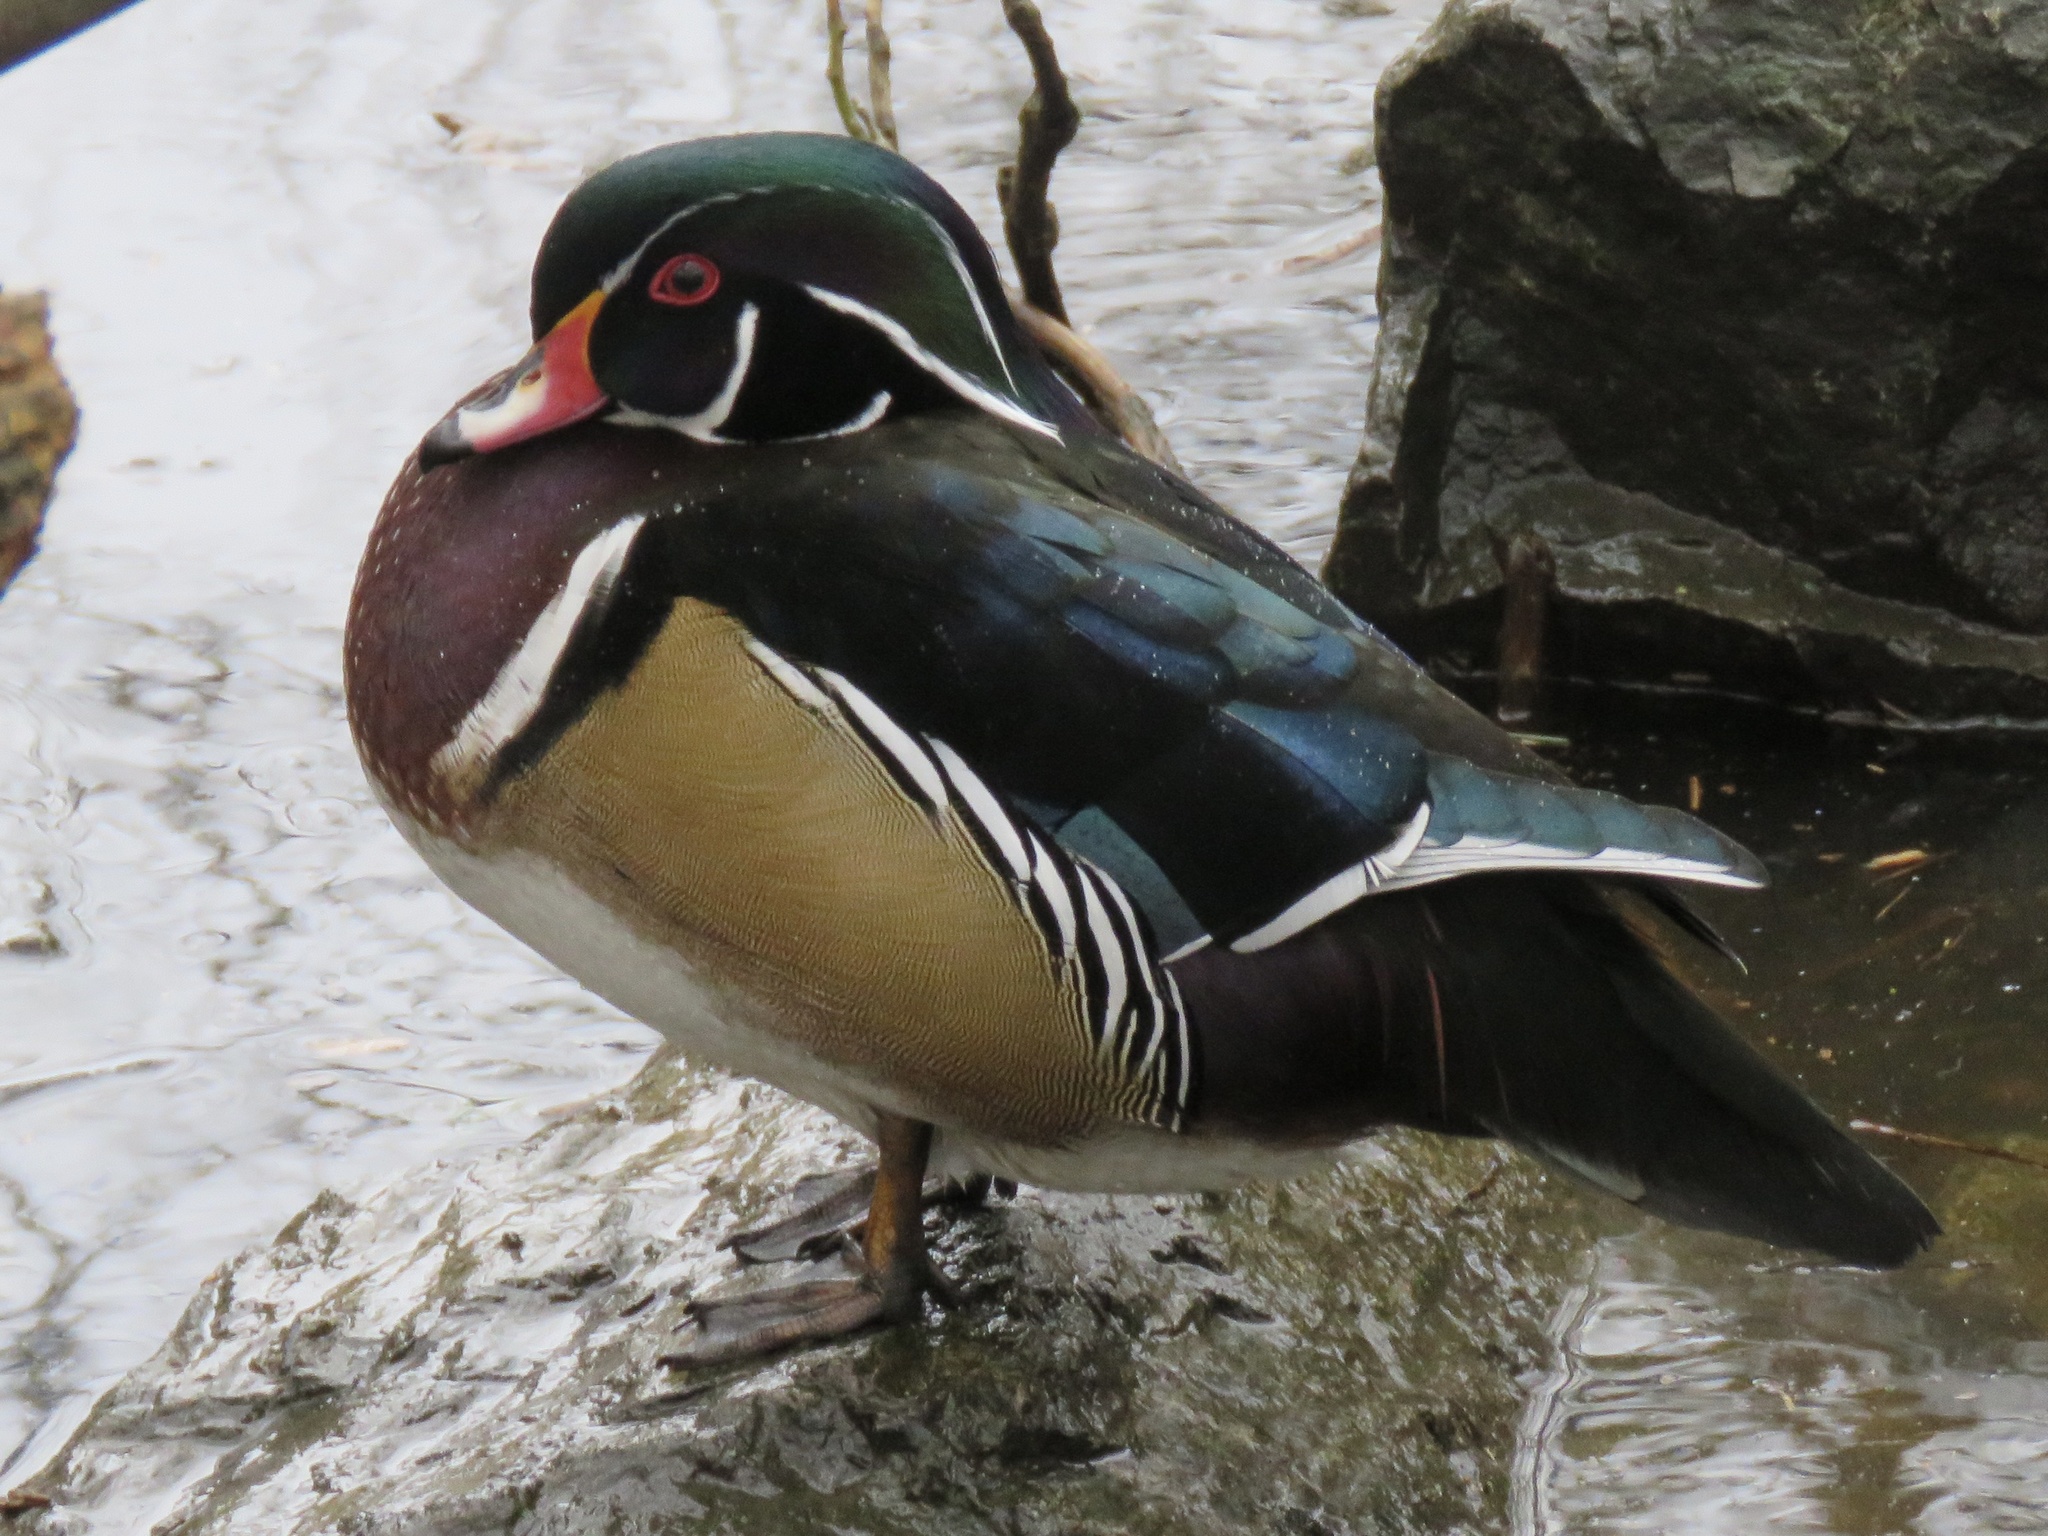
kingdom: Animalia
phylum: Chordata
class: Aves
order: Anseriformes
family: Anatidae
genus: Aix
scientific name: Aix sponsa
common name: Wood duck
